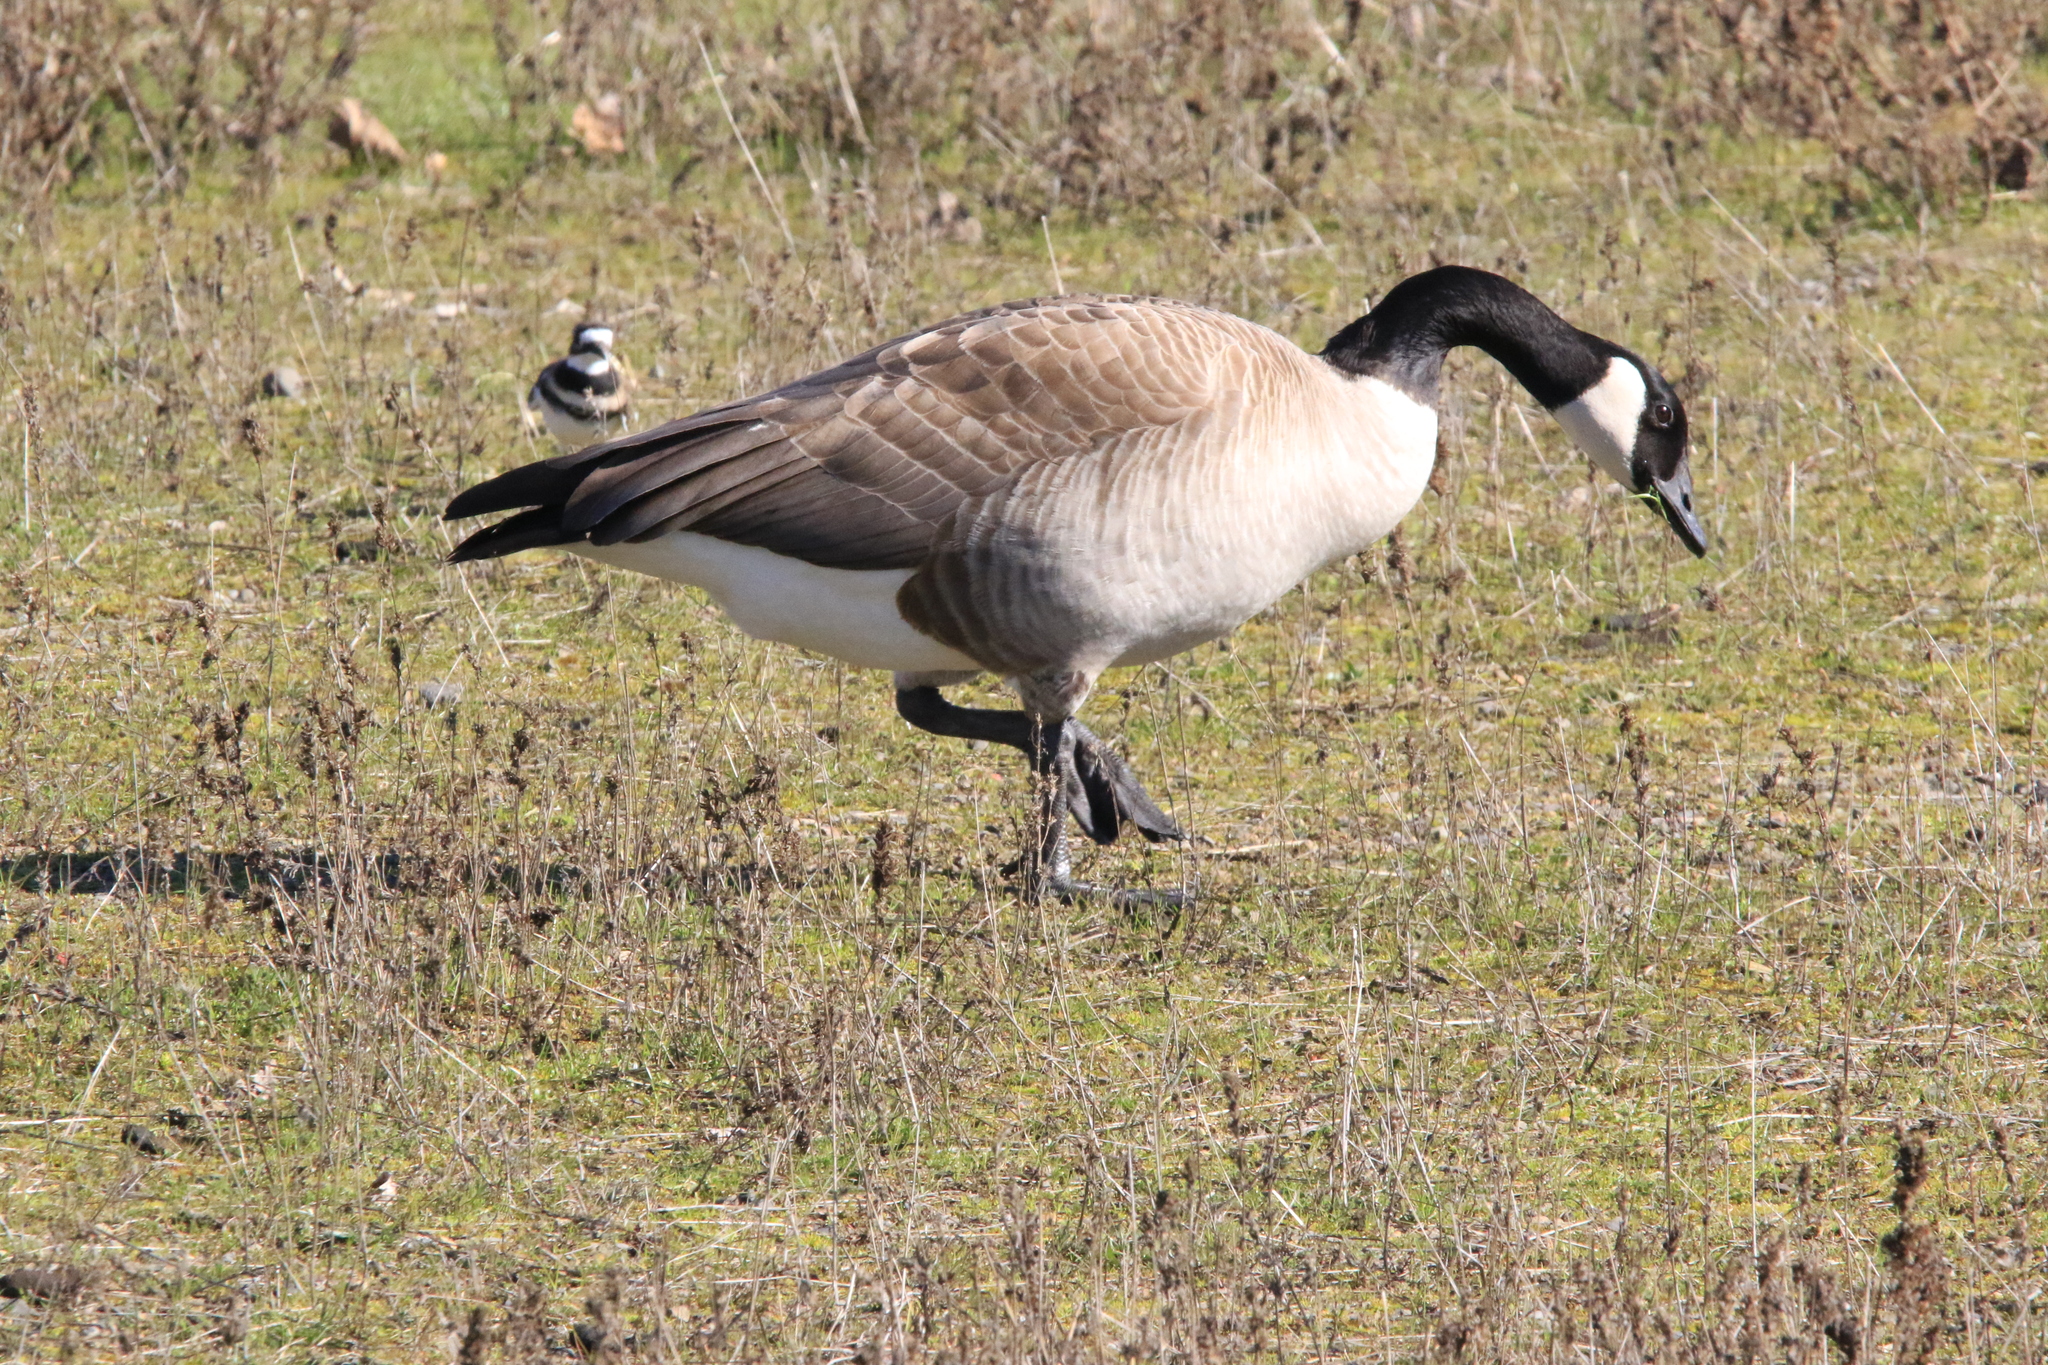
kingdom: Animalia
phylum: Chordata
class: Aves
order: Anseriformes
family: Anatidae
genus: Branta
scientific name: Branta canadensis
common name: Canada goose
